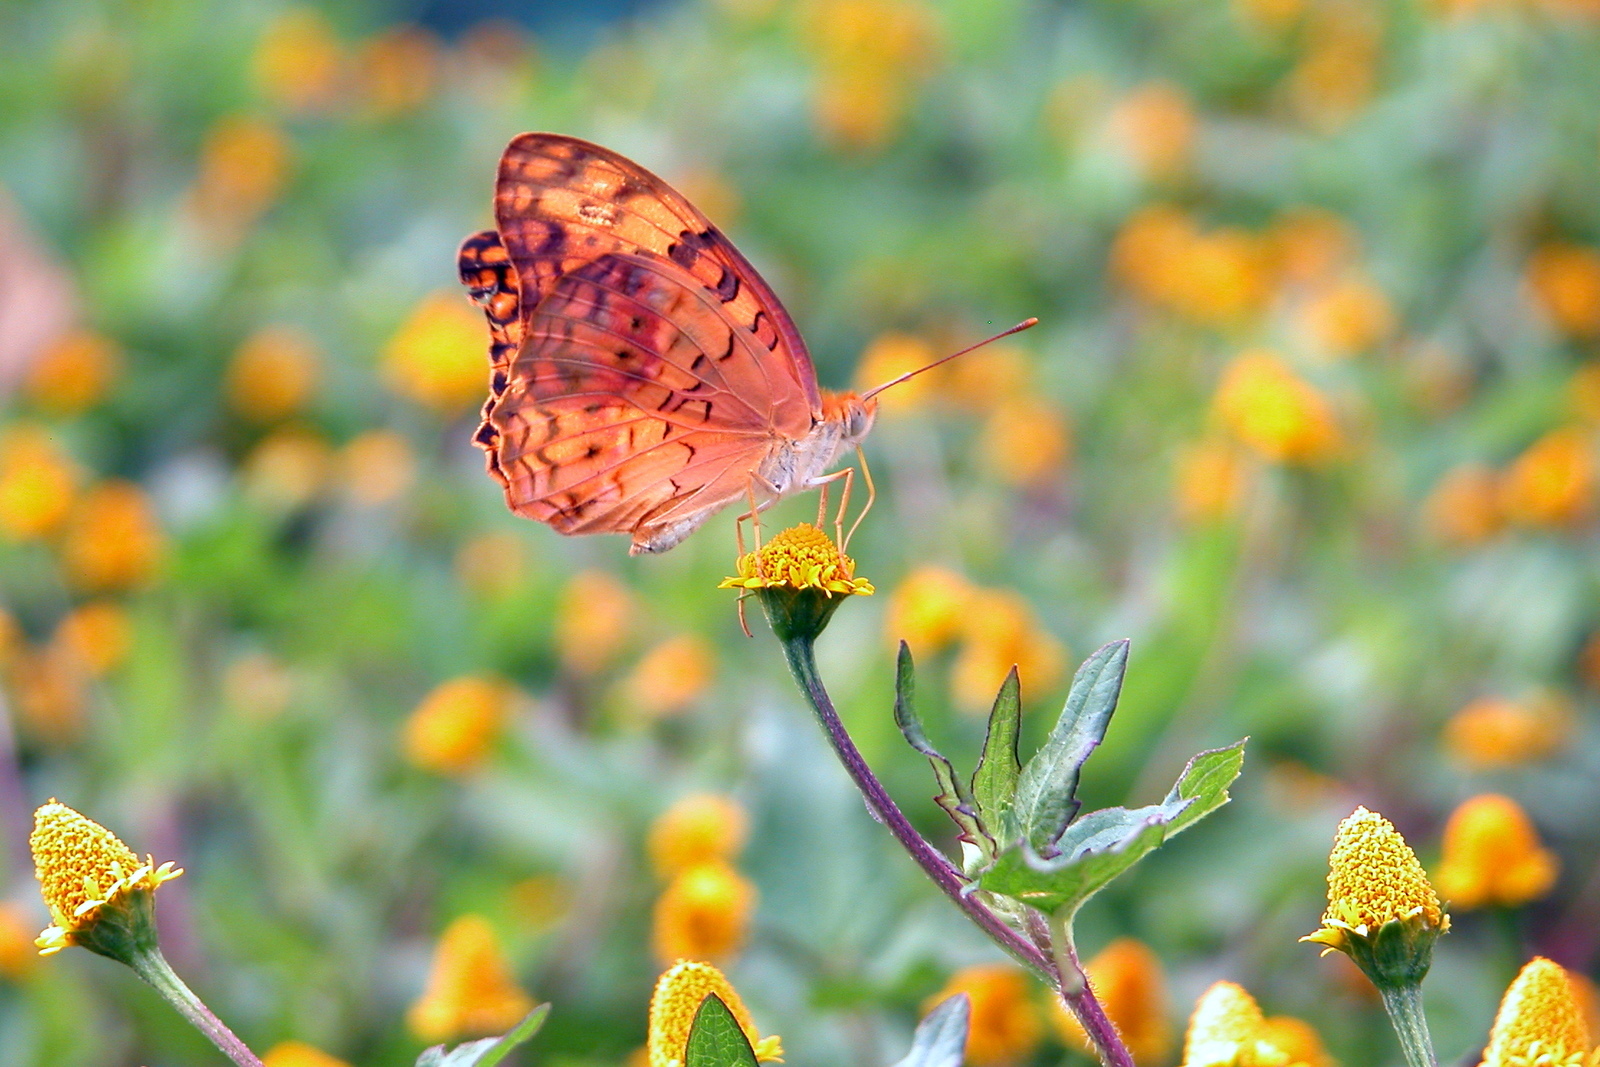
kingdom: Animalia
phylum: Arthropoda
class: Insecta
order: Lepidoptera
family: Nymphalidae
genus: Phalanta
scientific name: Phalanta phalantha
